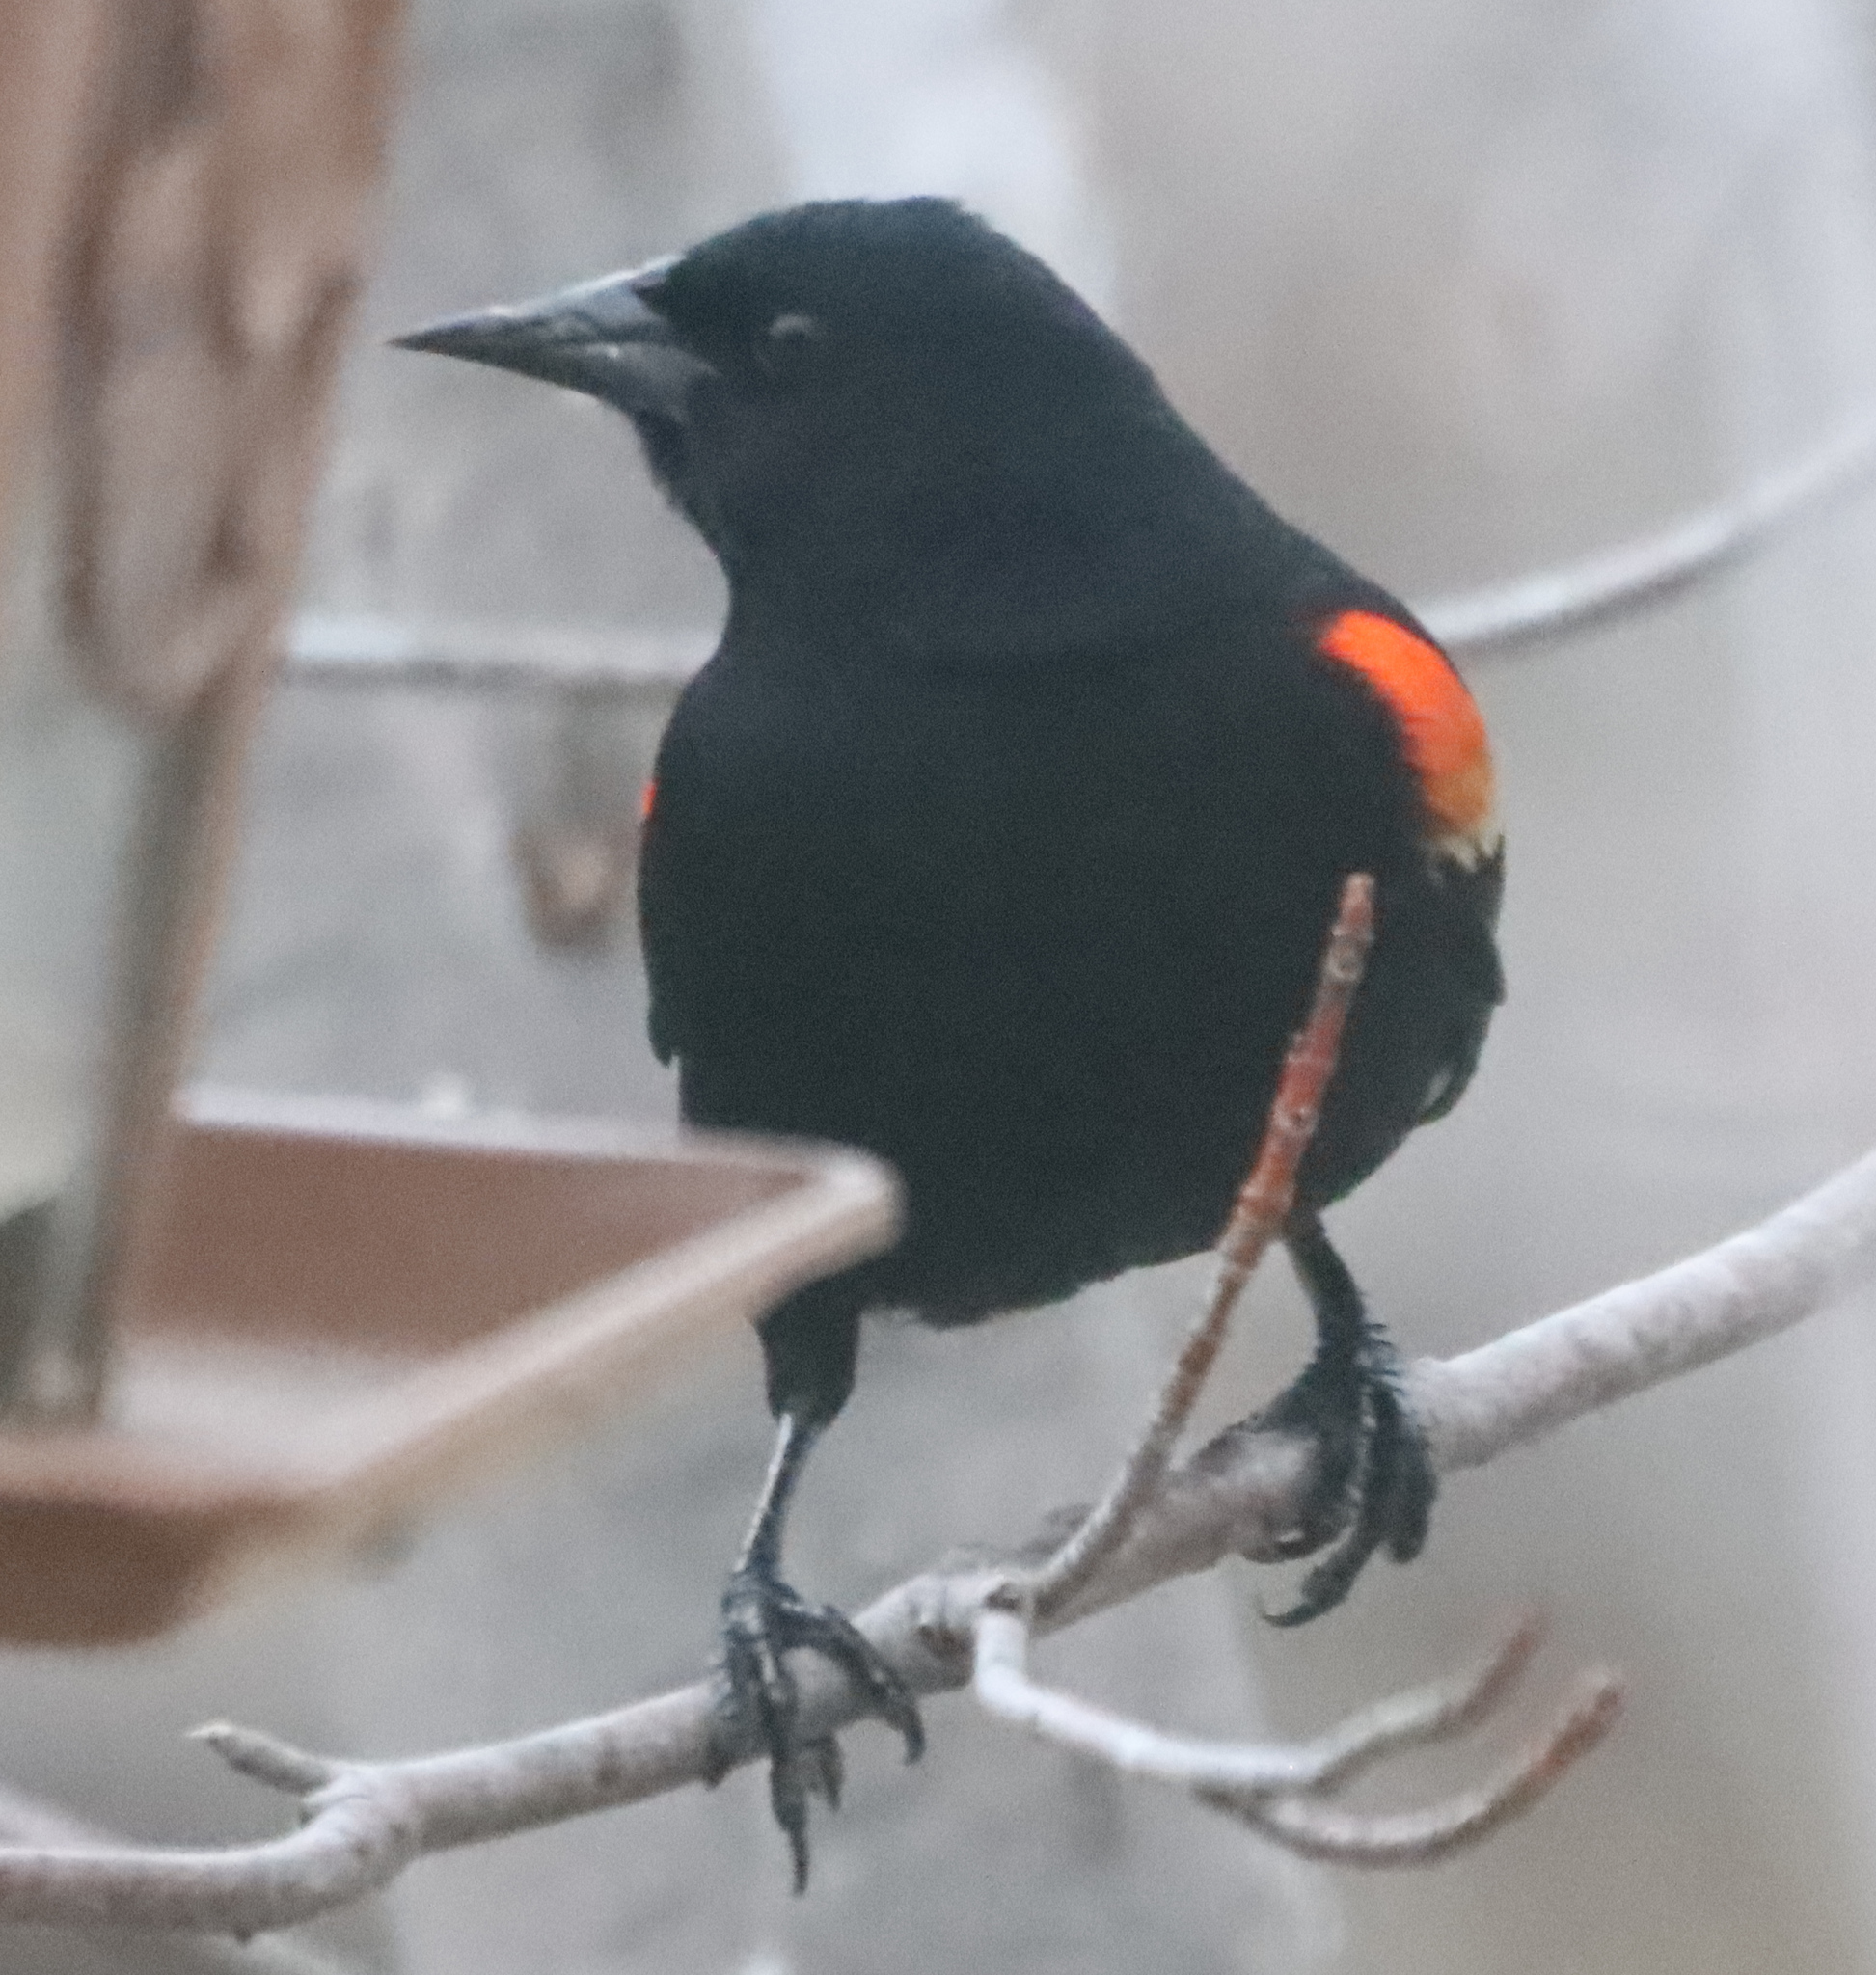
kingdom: Animalia
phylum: Chordata
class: Aves
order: Passeriformes
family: Icteridae
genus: Agelaius
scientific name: Agelaius phoeniceus
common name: Red-winged blackbird
